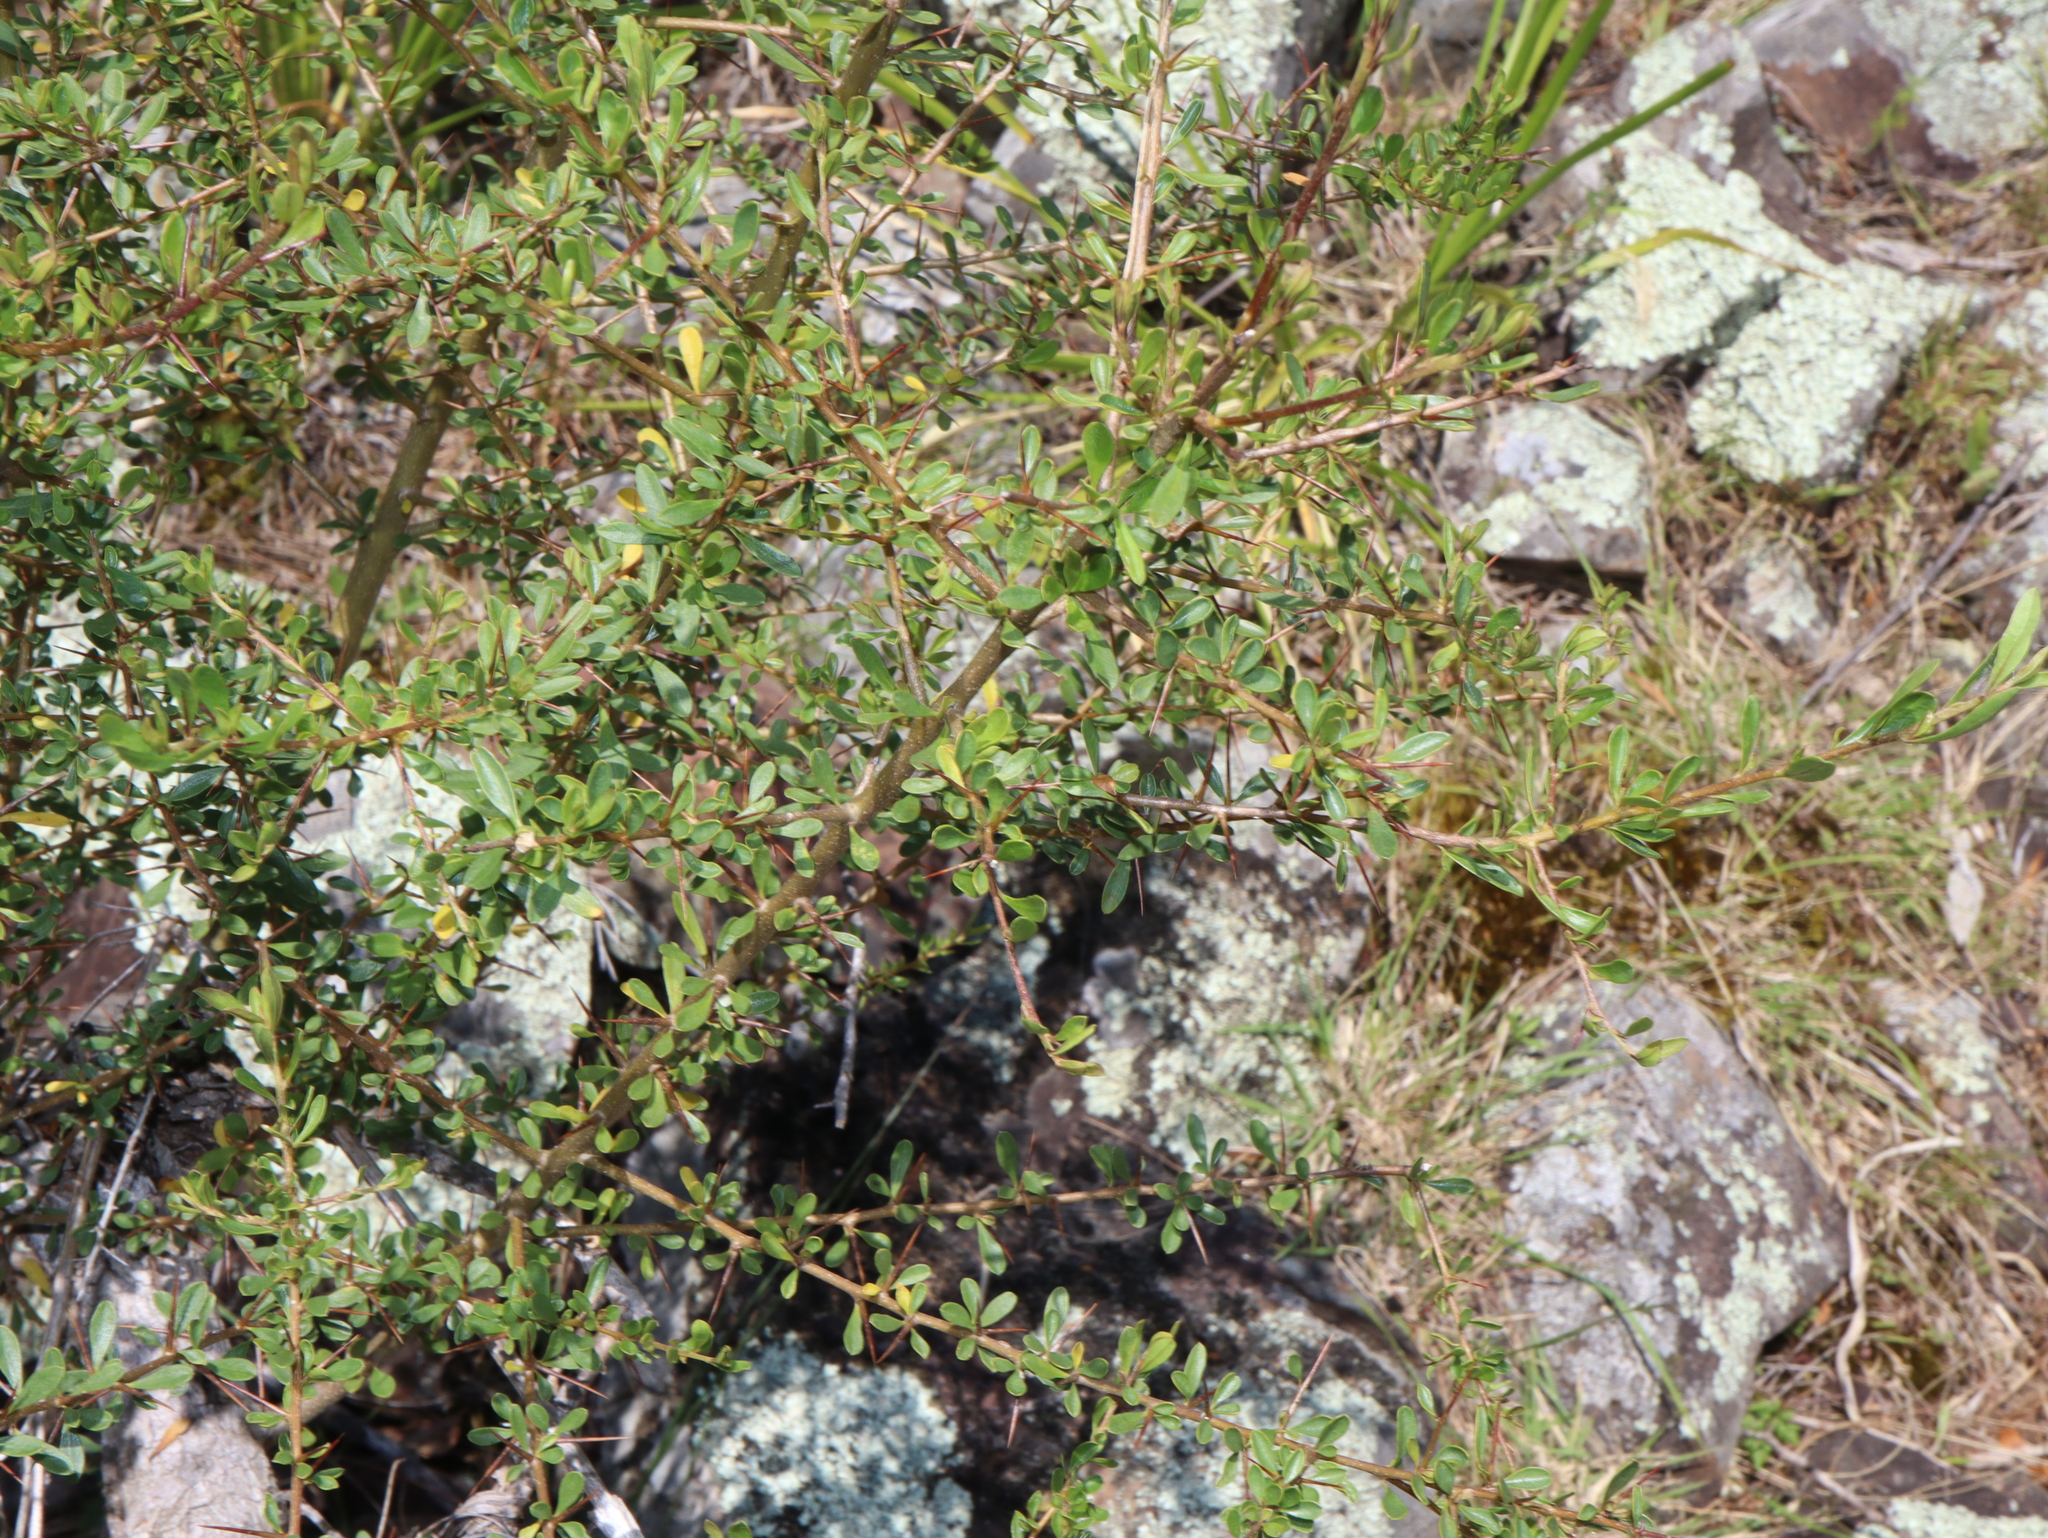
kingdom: Plantae
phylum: Tracheophyta
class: Magnoliopsida
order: Apiales
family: Pittosporaceae
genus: Bursaria
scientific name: Bursaria spinosa
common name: Australian blackthorn
